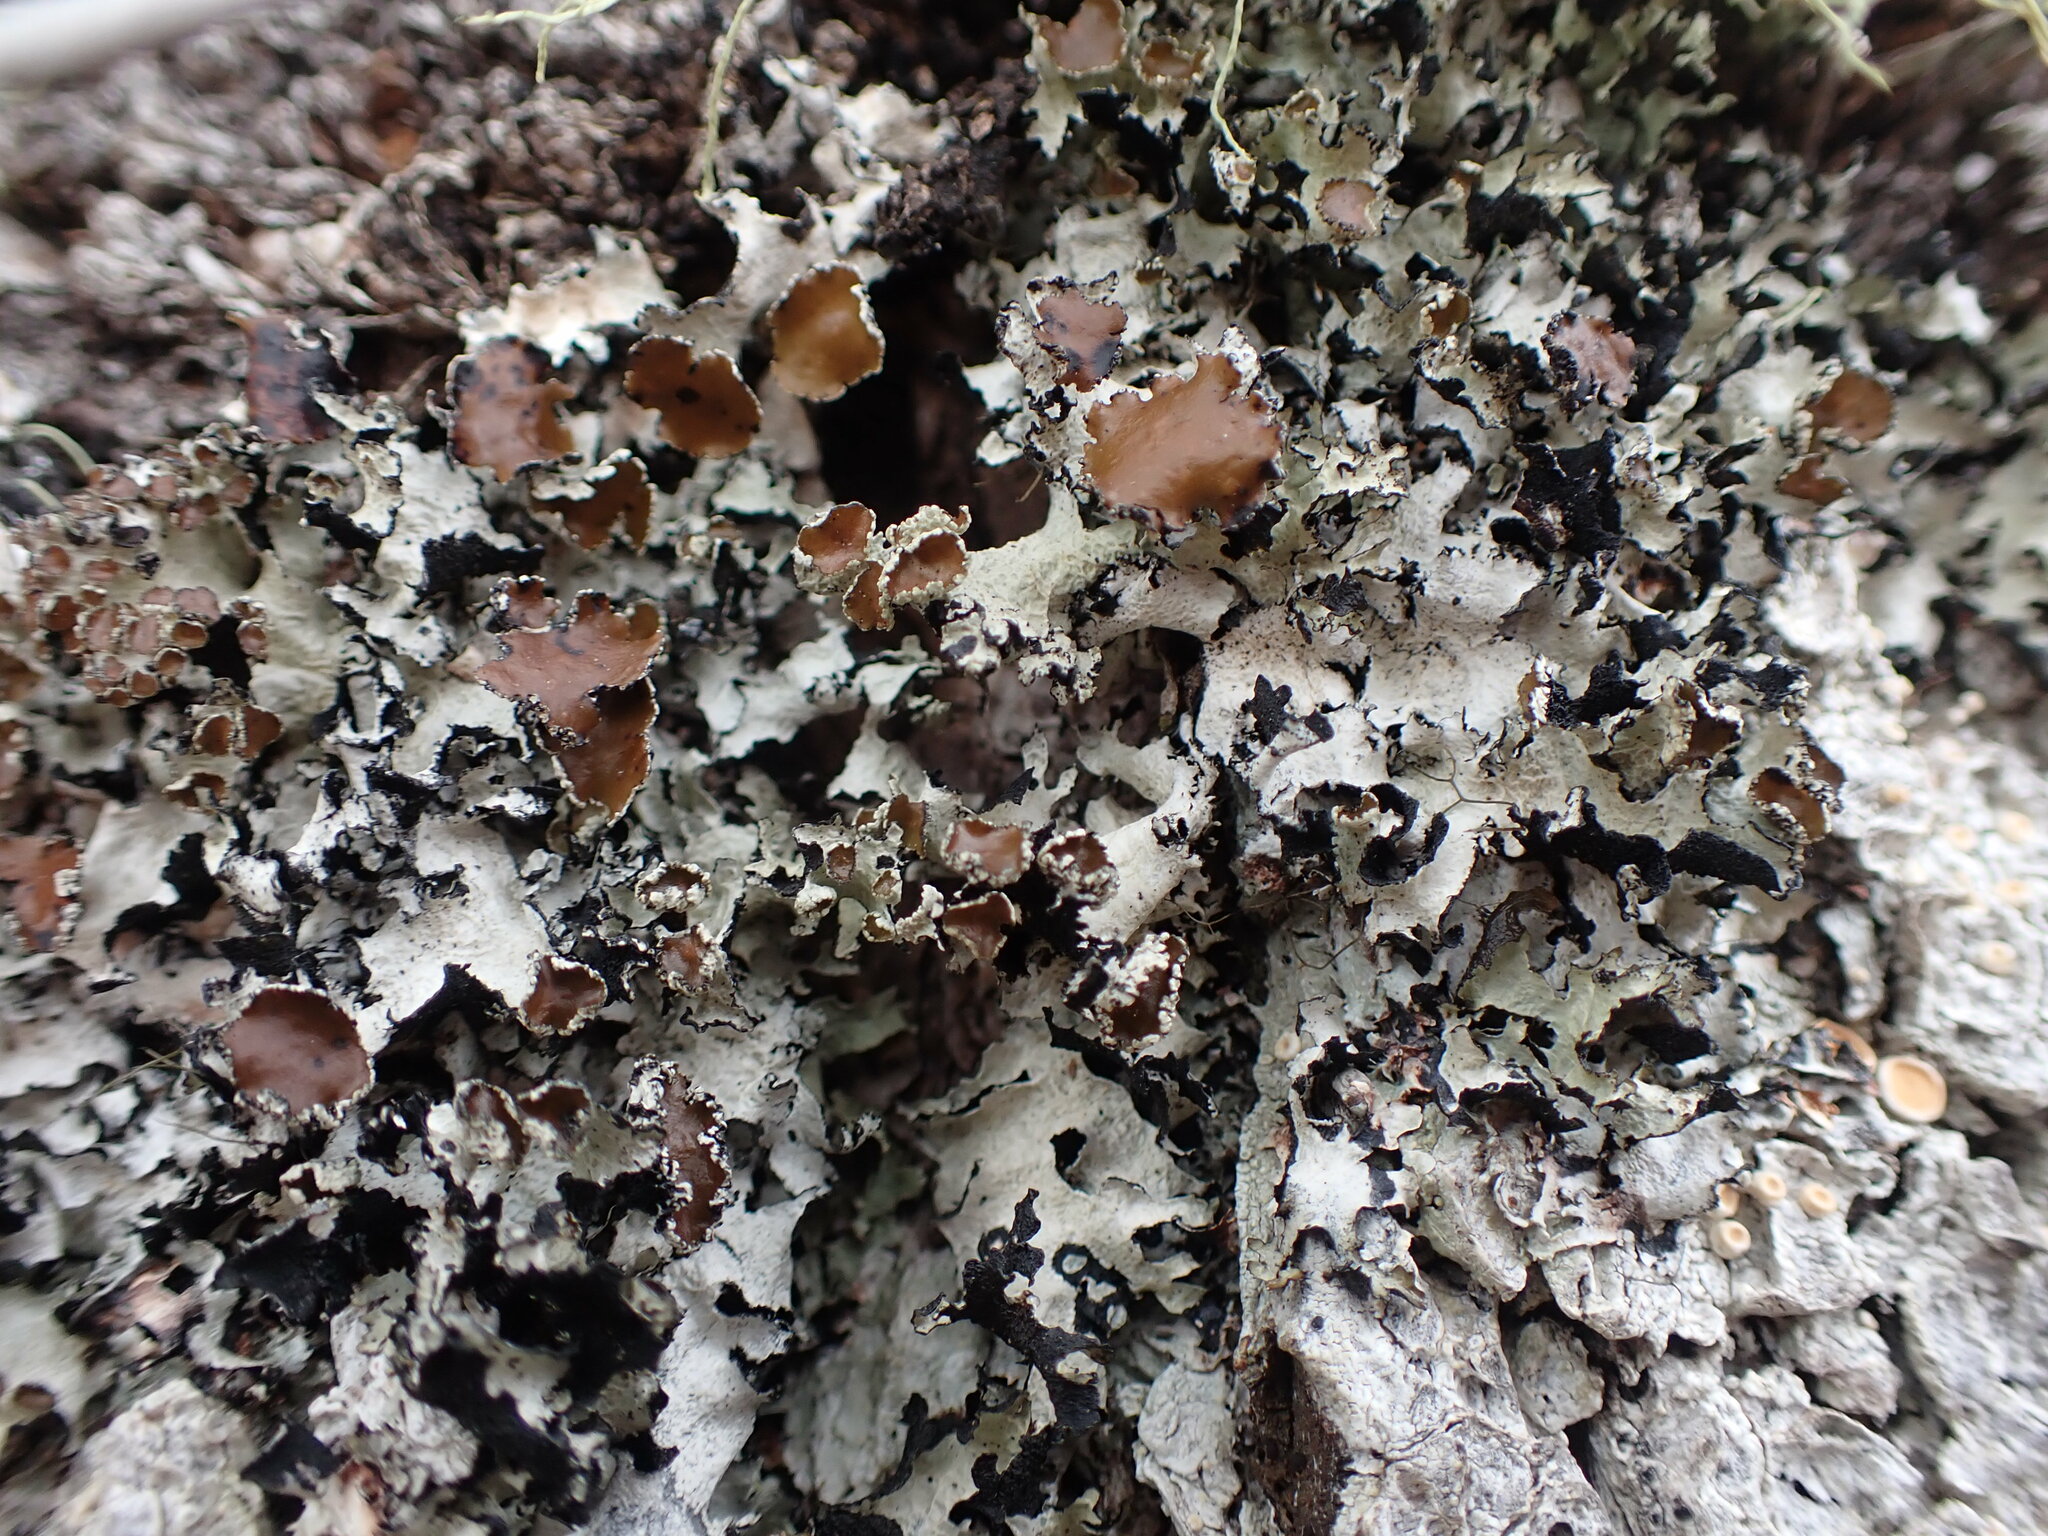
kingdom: Fungi
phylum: Ascomycota
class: Lecanoromycetes
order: Lecanorales
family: Parmeliaceae
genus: Esslingeriana
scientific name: Esslingeriana idahoensis
